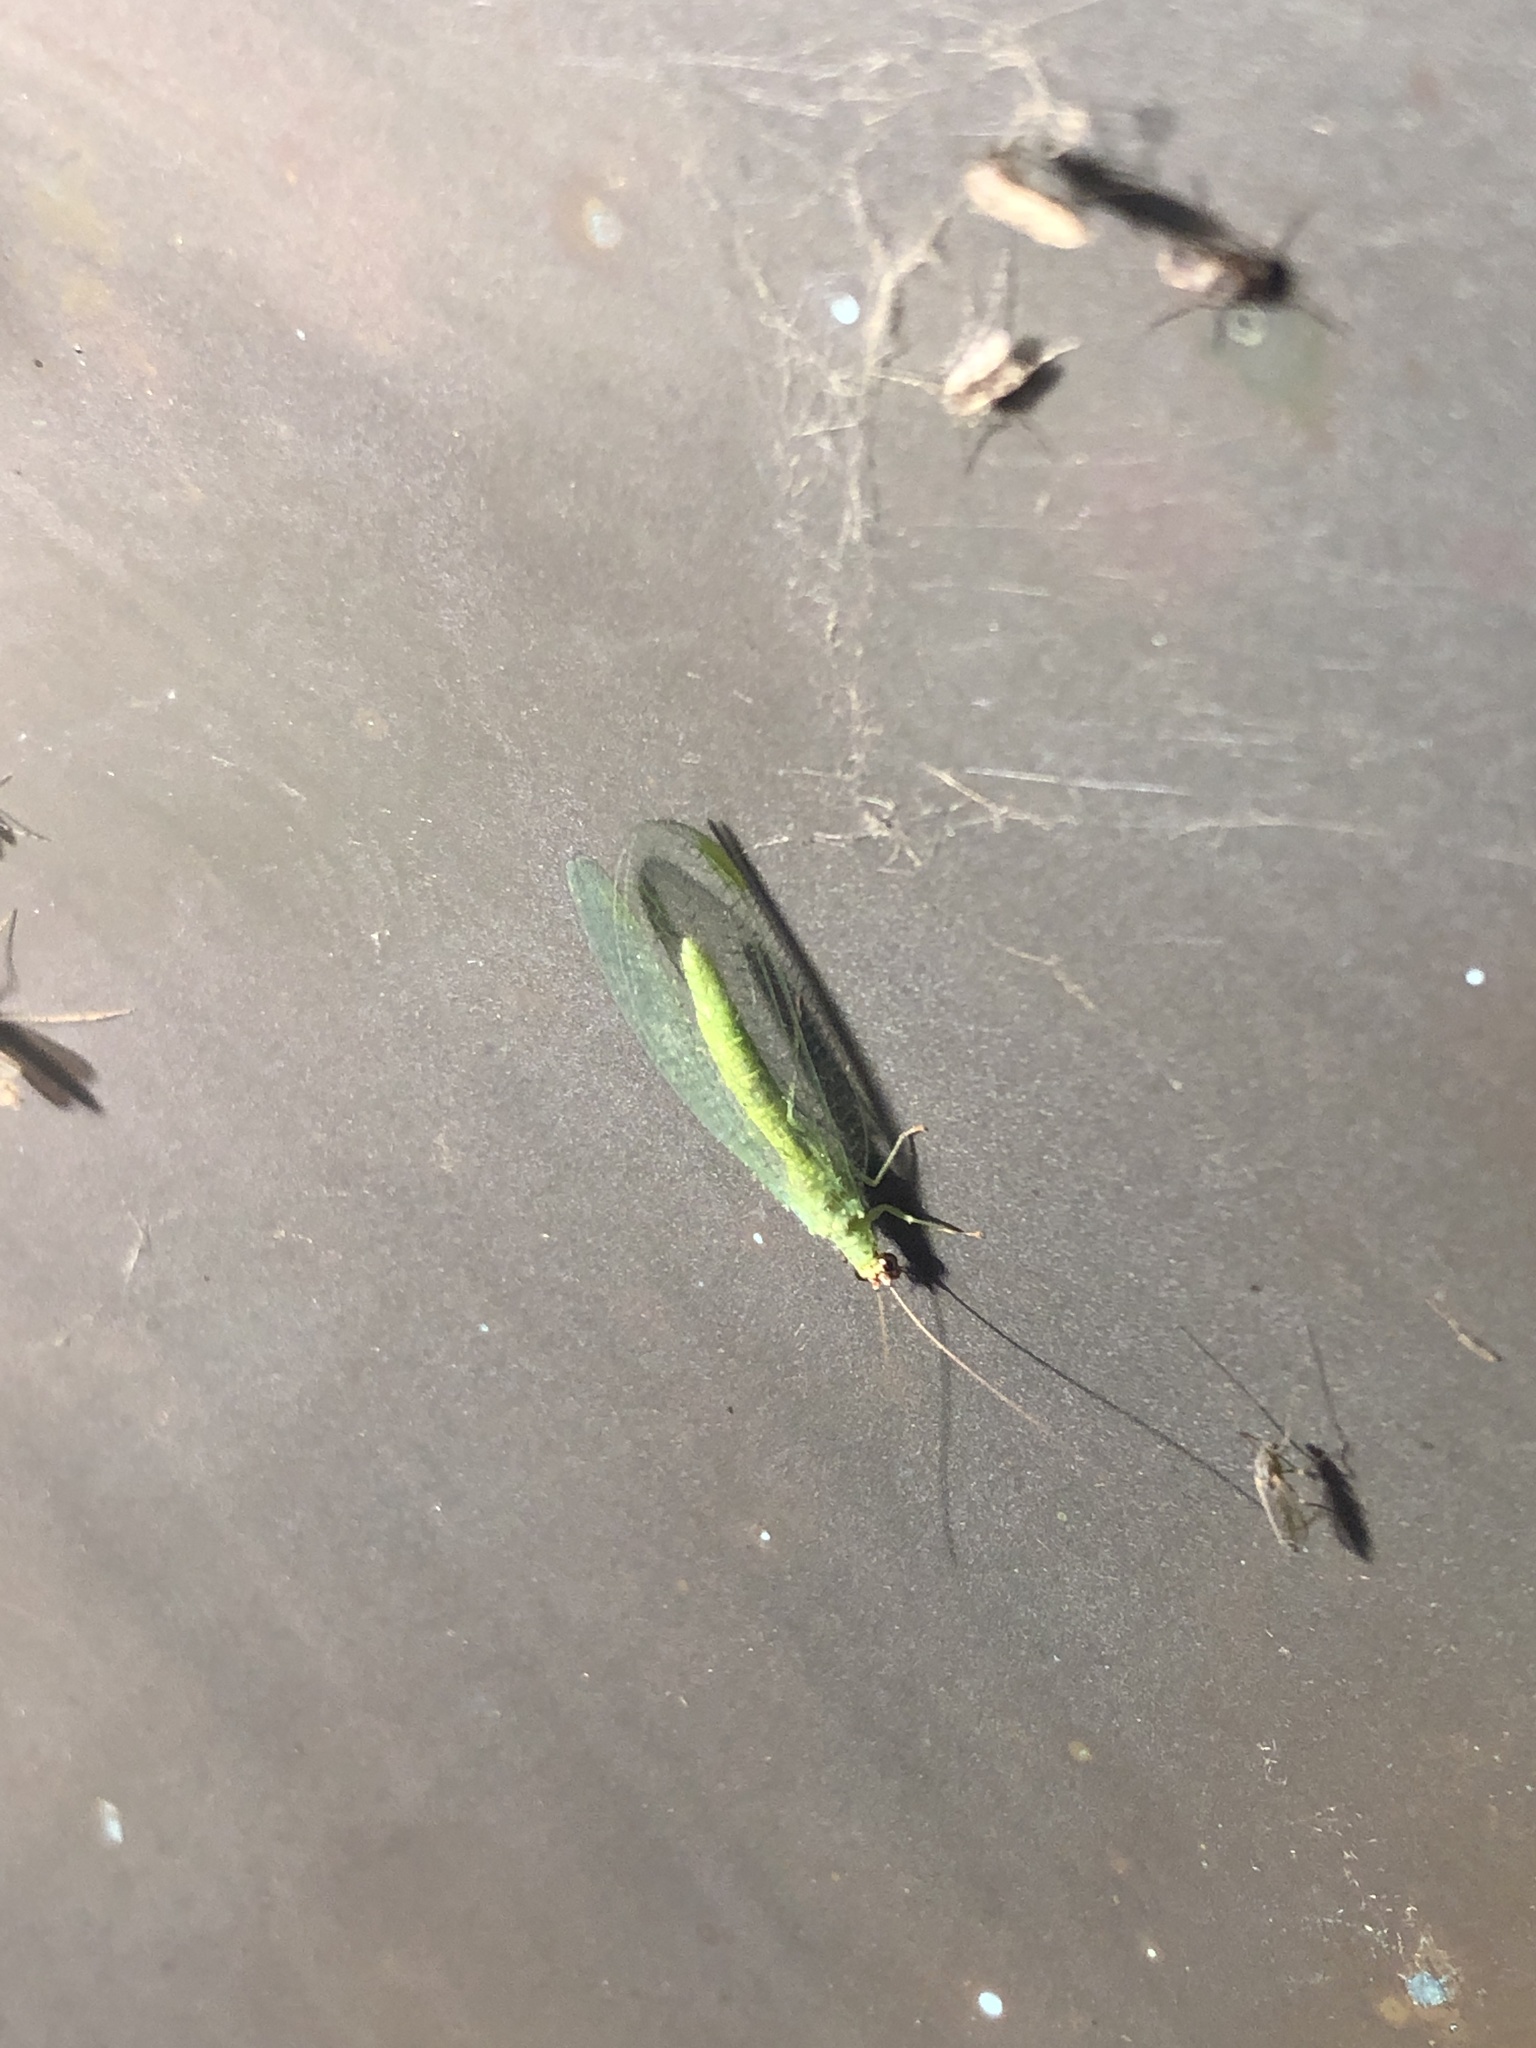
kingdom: Animalia
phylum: Arthropoda
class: Insecta
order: Neuroptera
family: Chrysopidae
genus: Chrysopa
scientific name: Chrysopa oculata
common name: Golden-eyed lacewing
